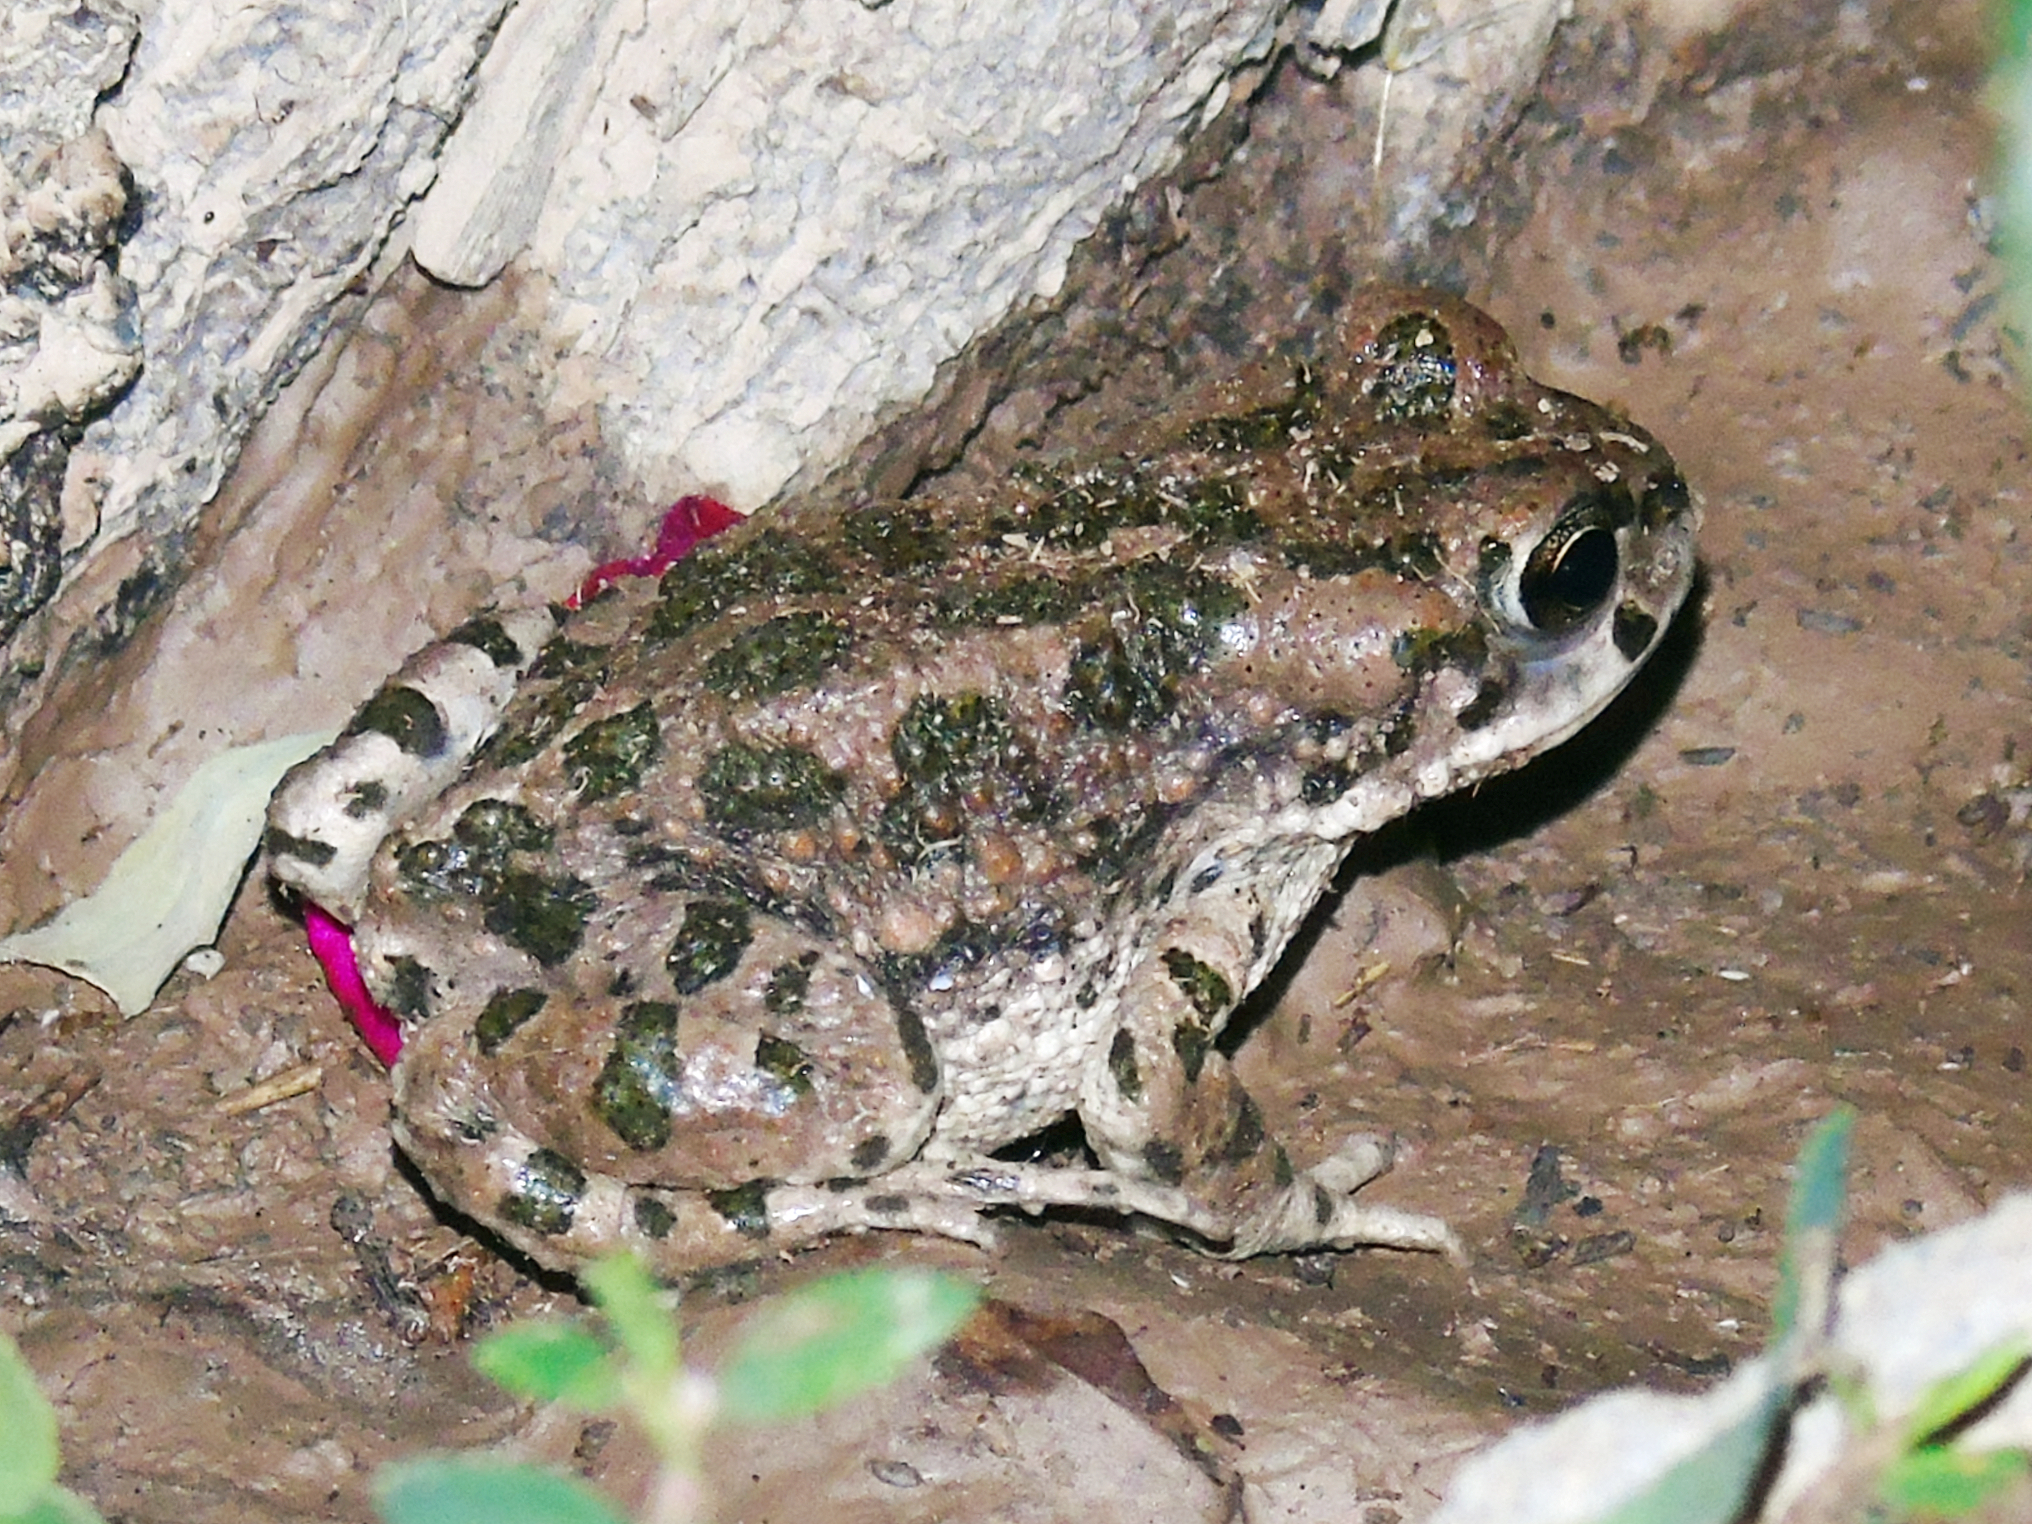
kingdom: Animalia
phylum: Chordata
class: Amphibia
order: Anura
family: Bufonidae
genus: Bufotes
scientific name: Bufotes pewzowi
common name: Xinjiang toad
